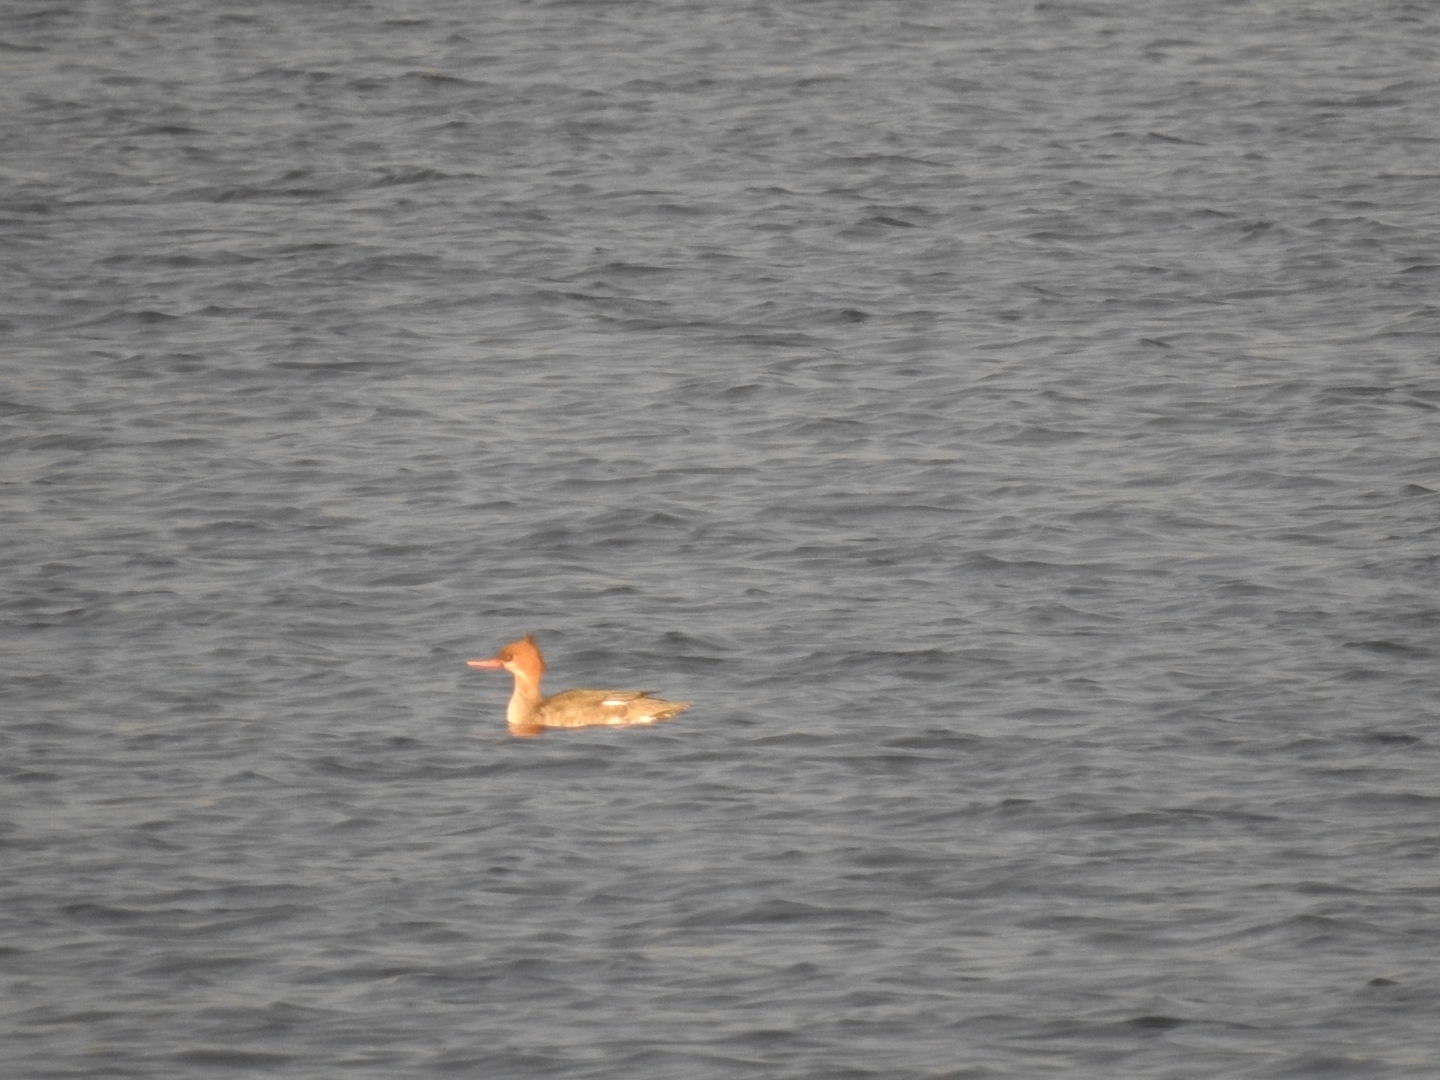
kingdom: Animalia
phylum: Chordata
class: Aves
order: Anseriformes
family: Anatidae
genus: Mergus
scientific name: Mergus serrator
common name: Red-breasted merganser
